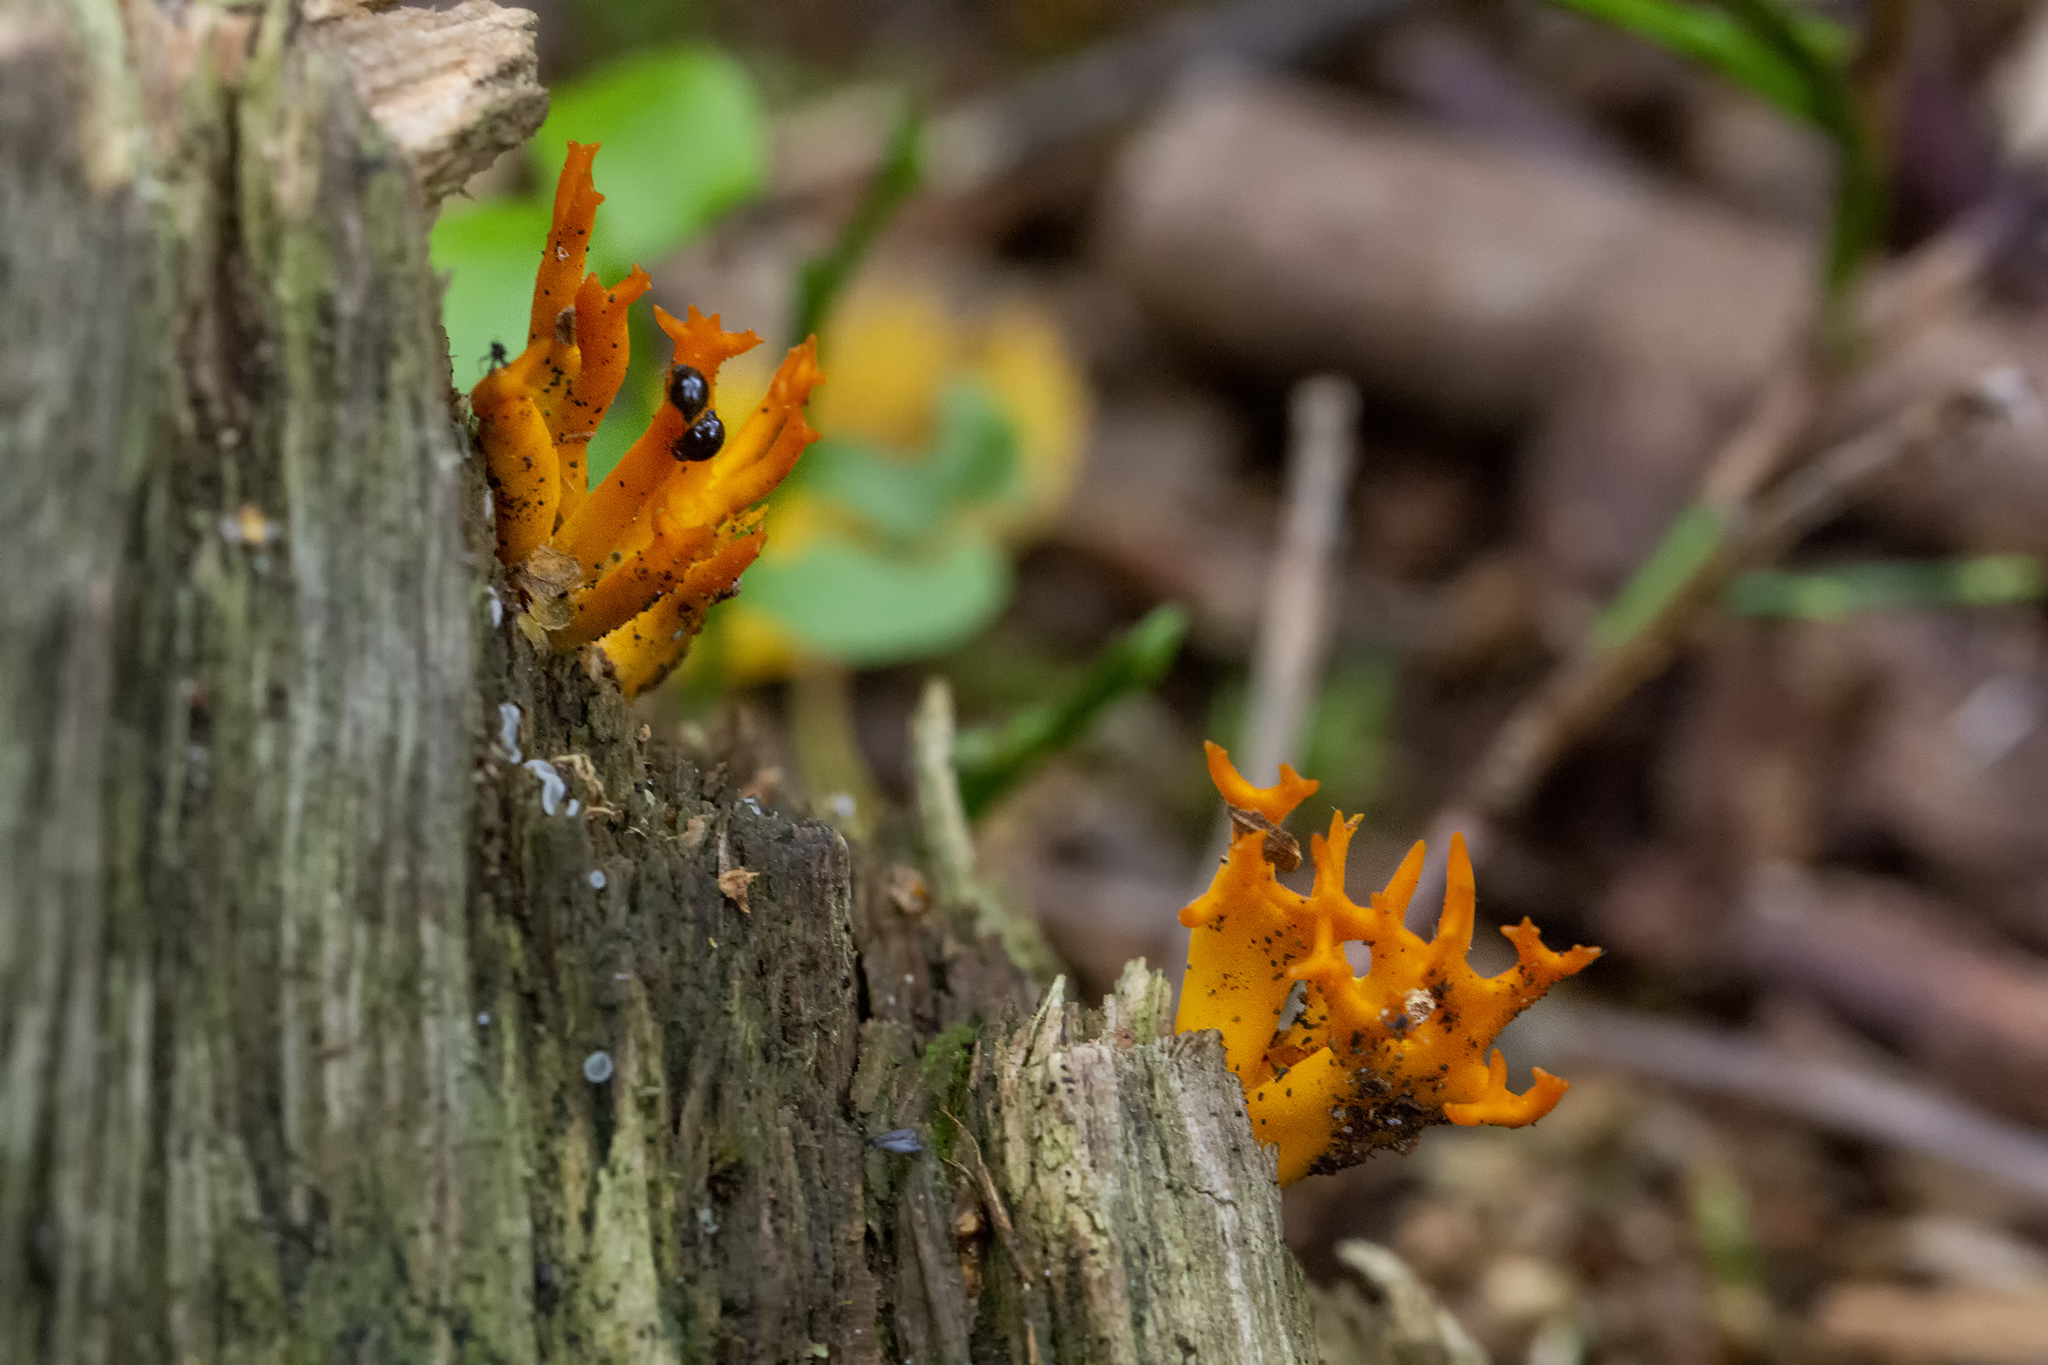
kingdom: Fungi
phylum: Basidiomycota
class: Dacrymycetes
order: Dacrymycetales
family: Dacrymycetaceae
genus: Calocera
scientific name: Calocera viscosa
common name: Yellow stagshorn
